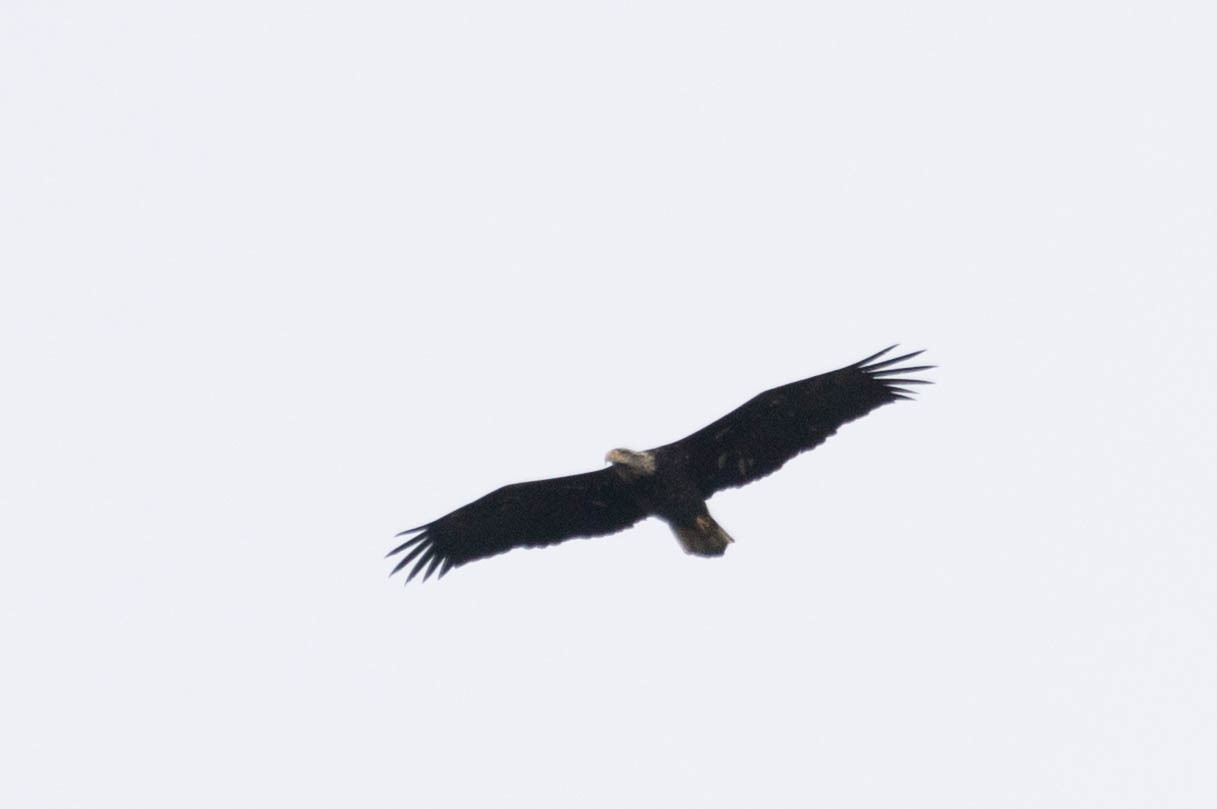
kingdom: Animalia
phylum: Chordata
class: Aves
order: Accipitriformes
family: Accipitridae
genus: Haliaeetus
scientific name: Haliaeetus leucocephalus
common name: Bald eagle
